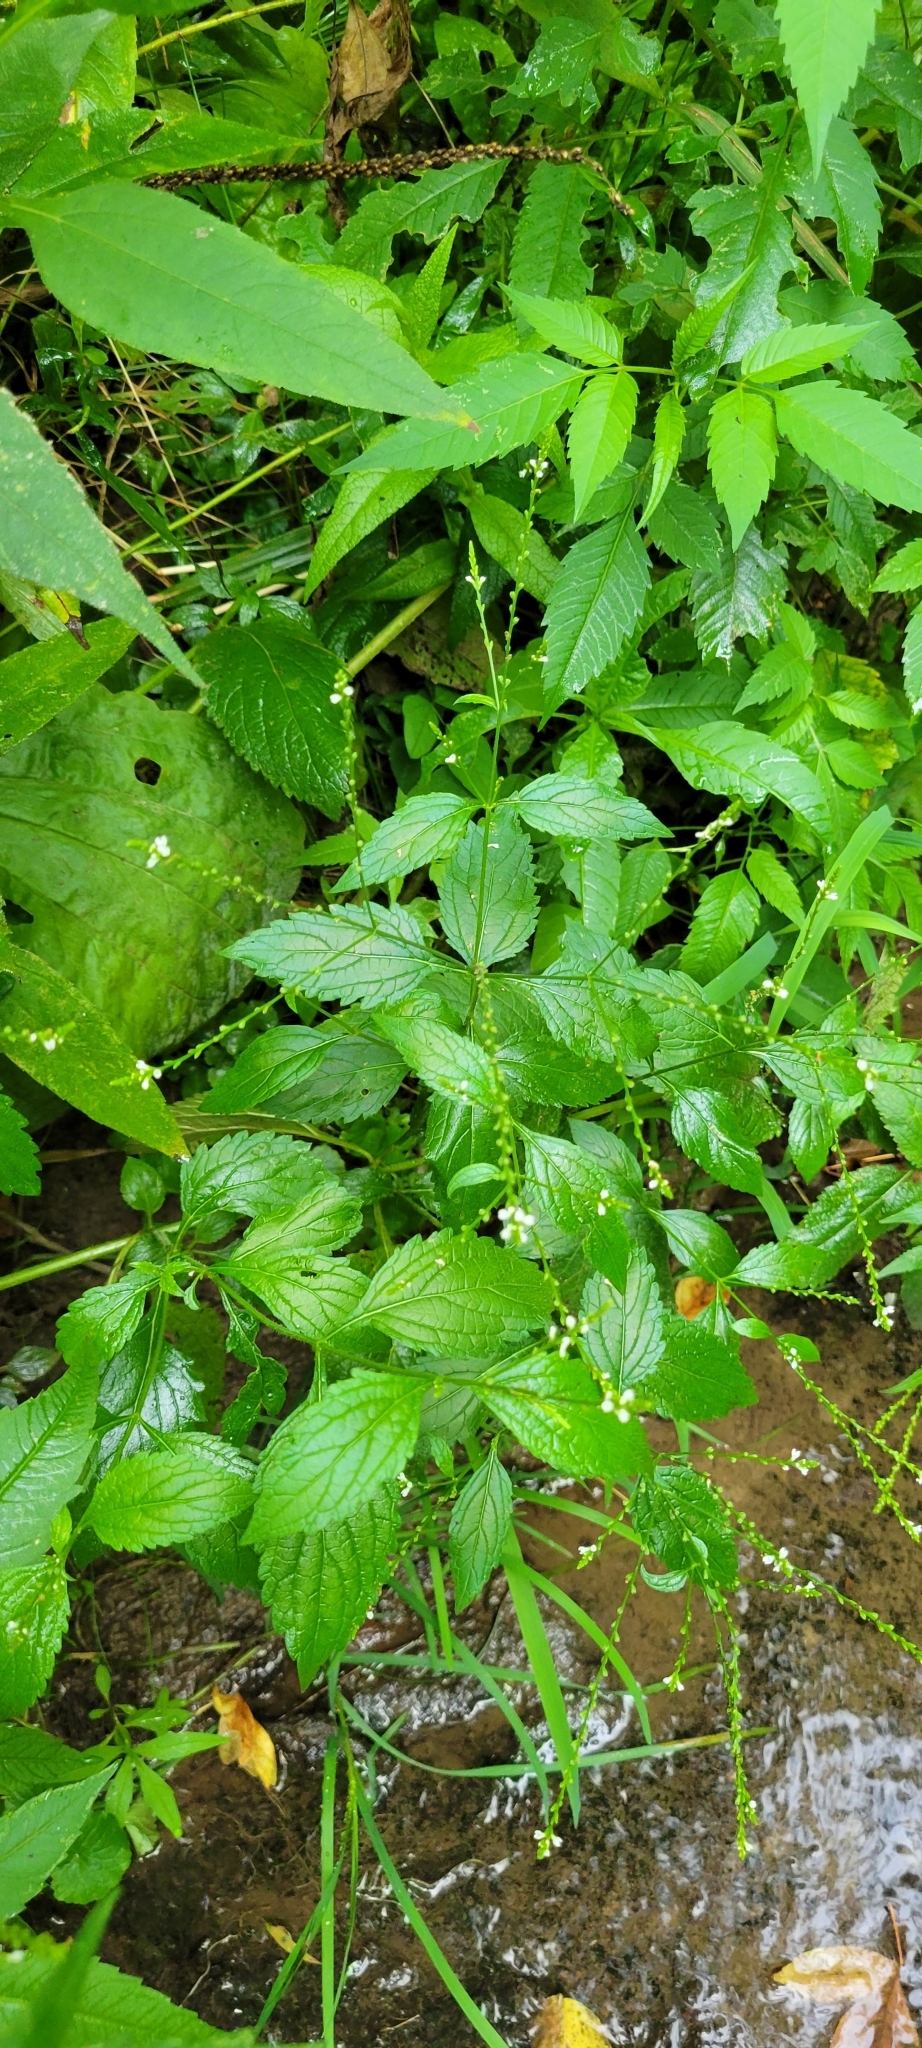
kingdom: Plantae
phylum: Tracheophyta
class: Magnoliopsida
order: Lamiales
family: Verbenaceae
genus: Verbena
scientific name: Verbena urticifolia
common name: Nettle-leaved vervain
